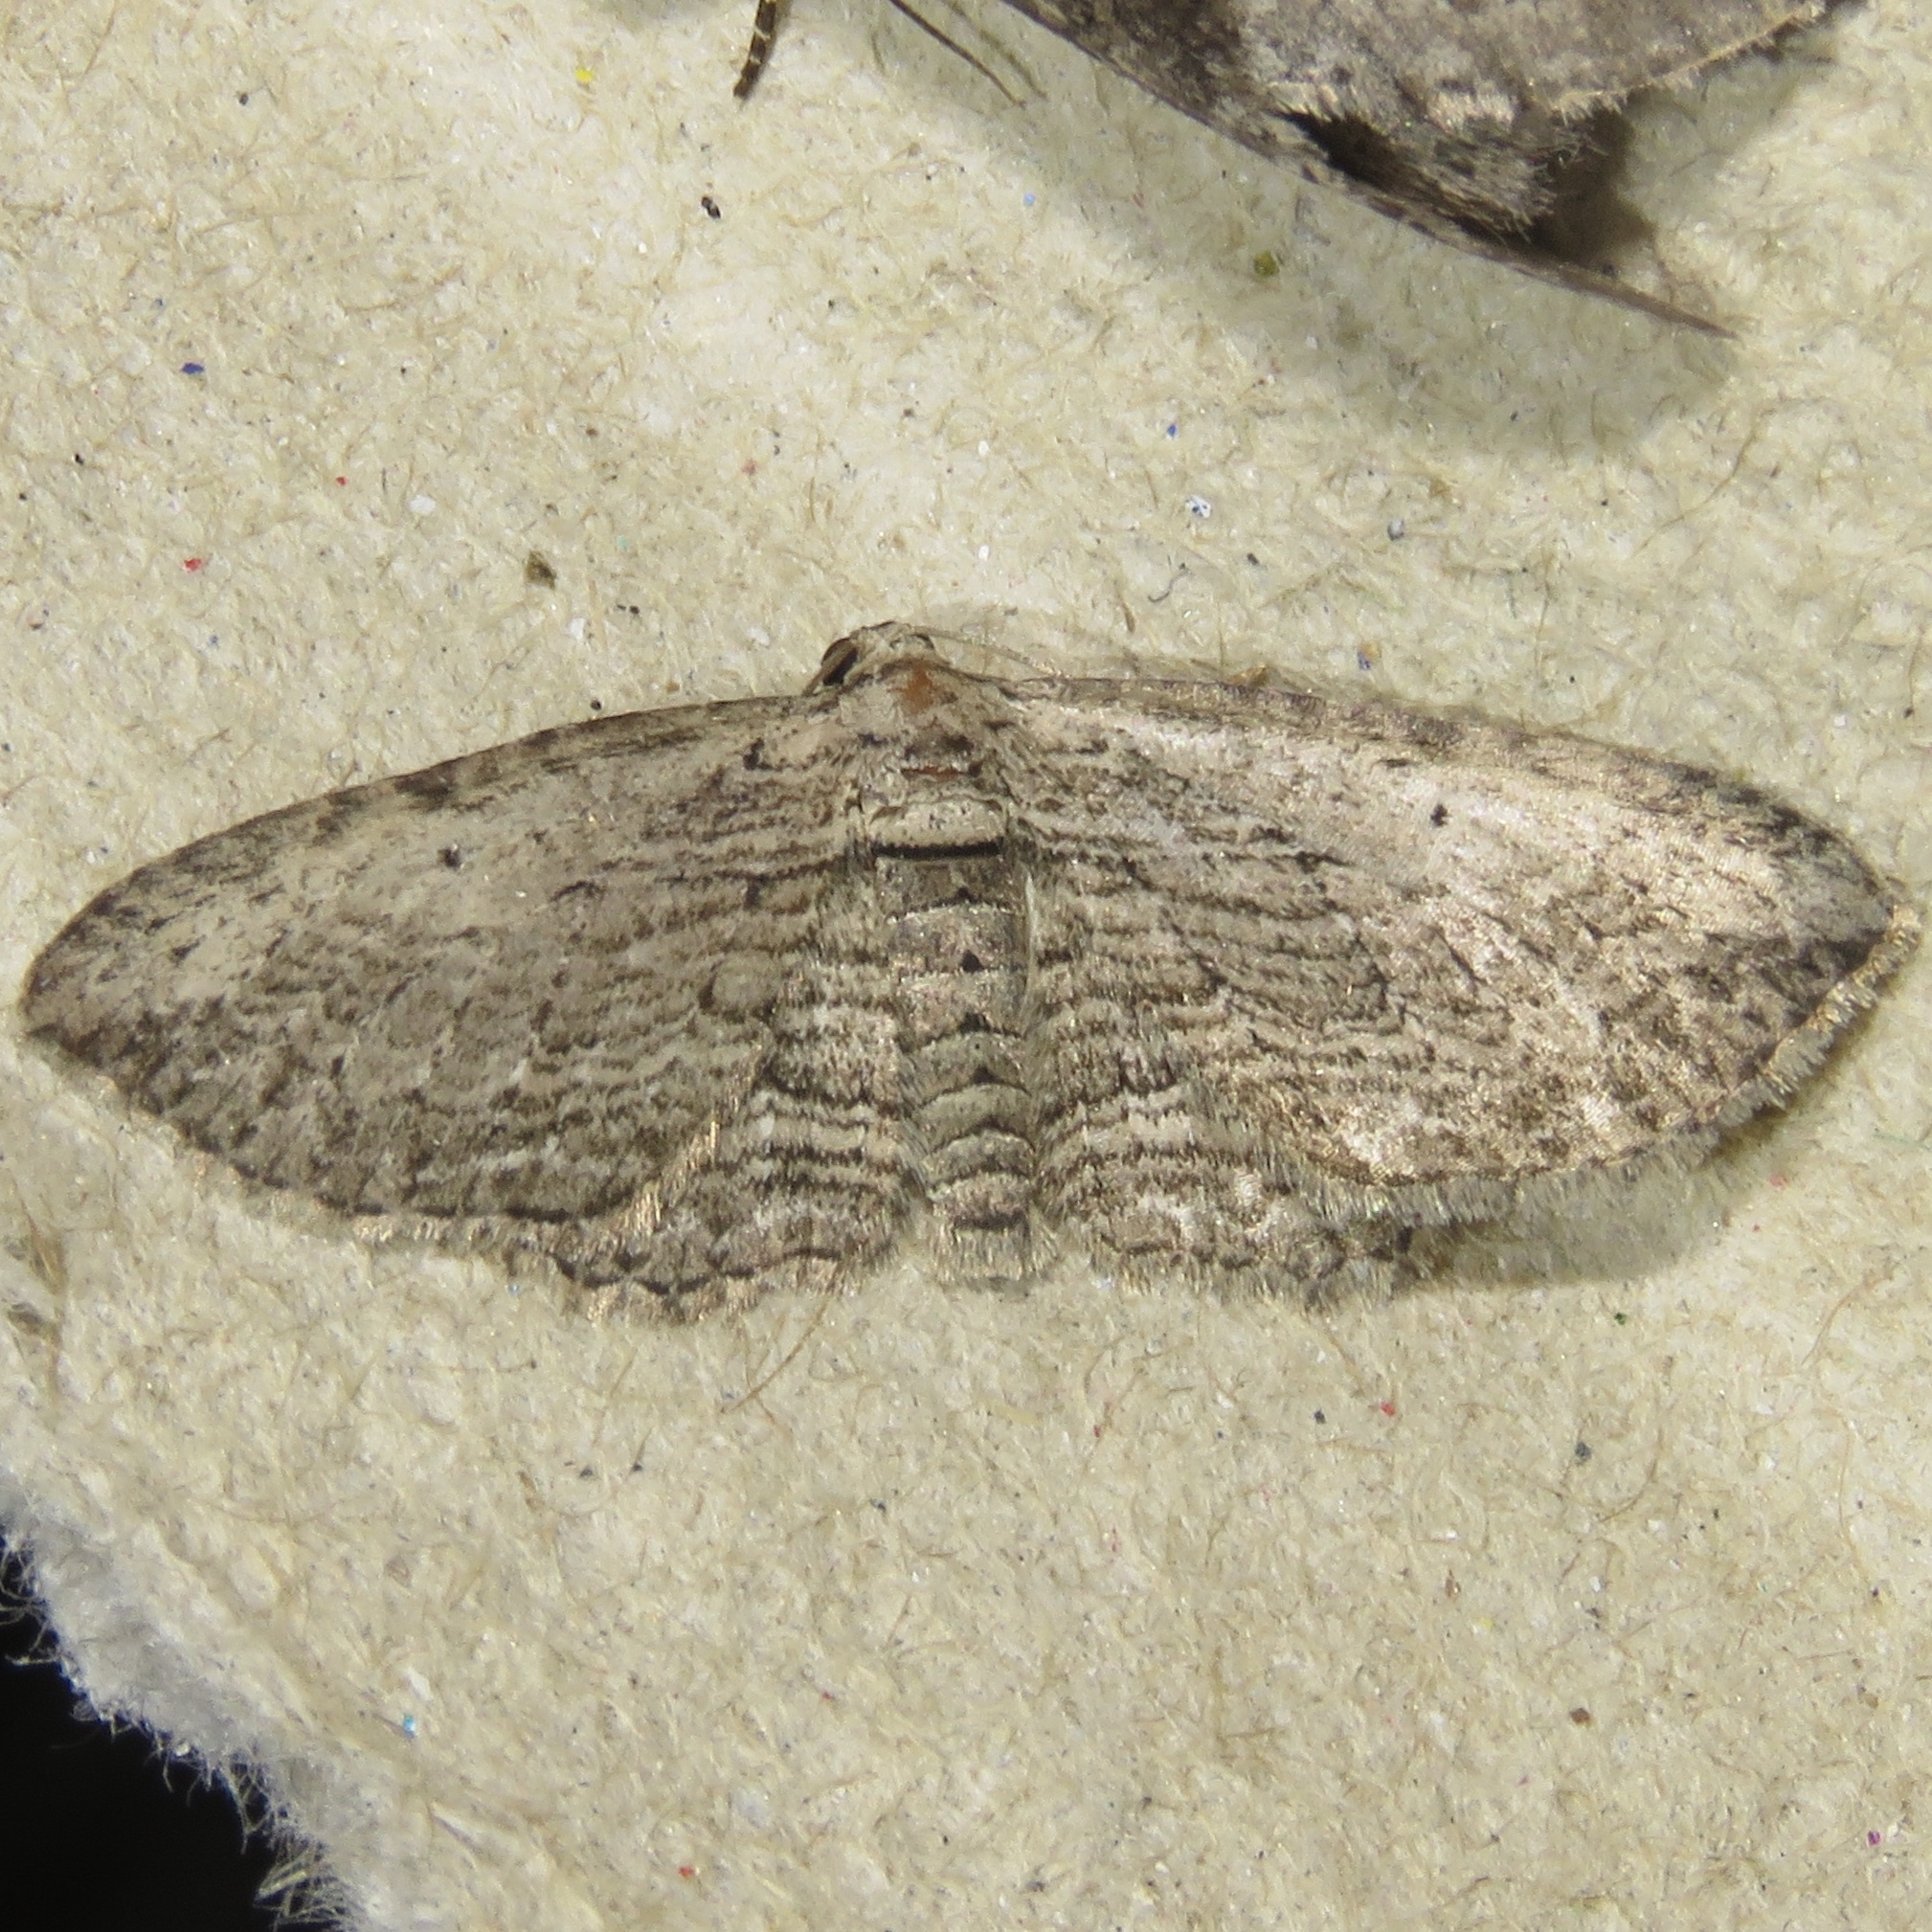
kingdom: Animalia
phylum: Arthropoda
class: Insecta
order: Lepidoptera
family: Geometridae
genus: Horisme
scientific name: Horisme intestinata
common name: Brown bark carpet
